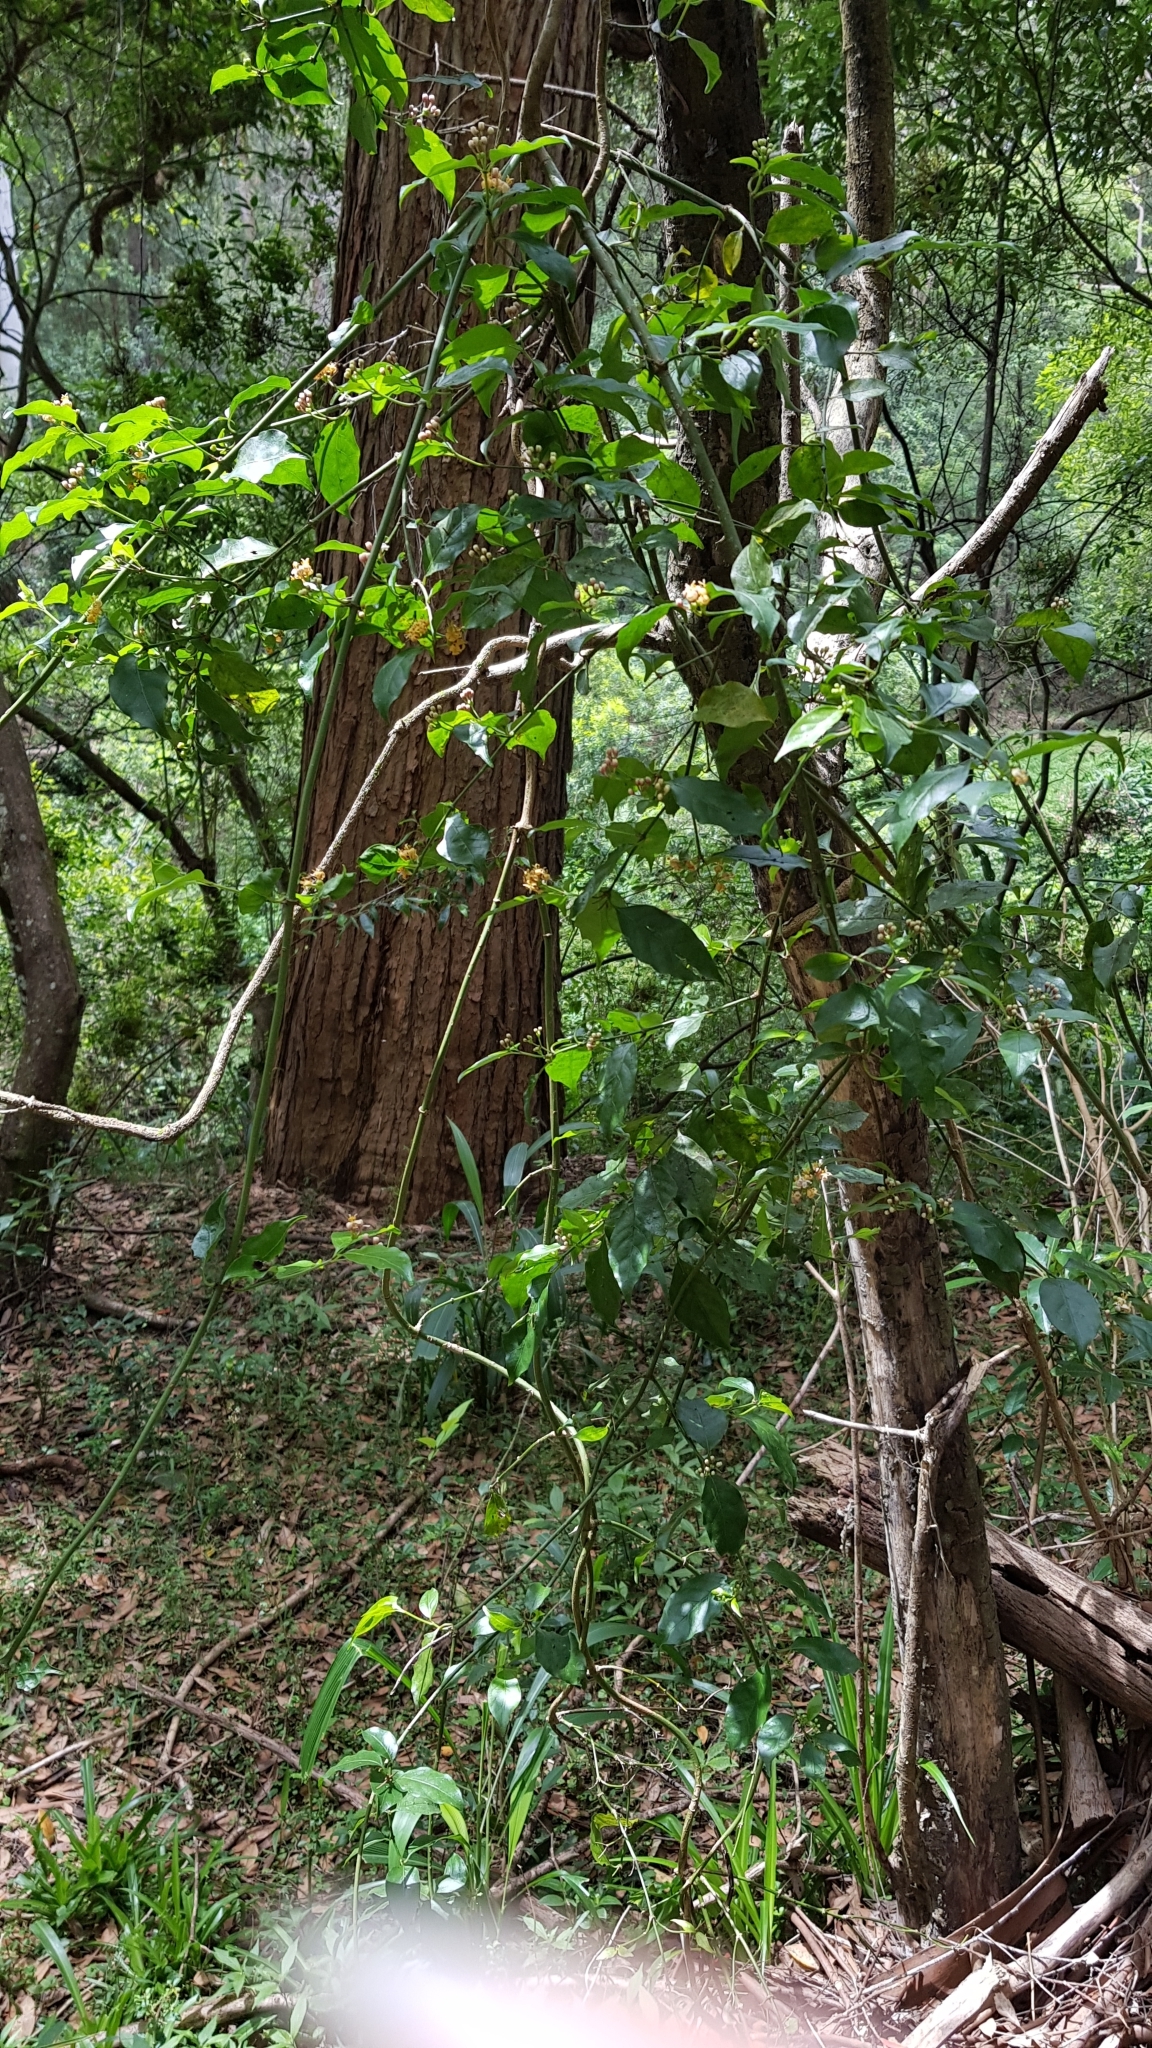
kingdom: Plantae
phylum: Tracheophyta
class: Magnoliopsida
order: Gentianales
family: Rubiaceae
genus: Gynochthodes
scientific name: Gynochthodes jasminoides
